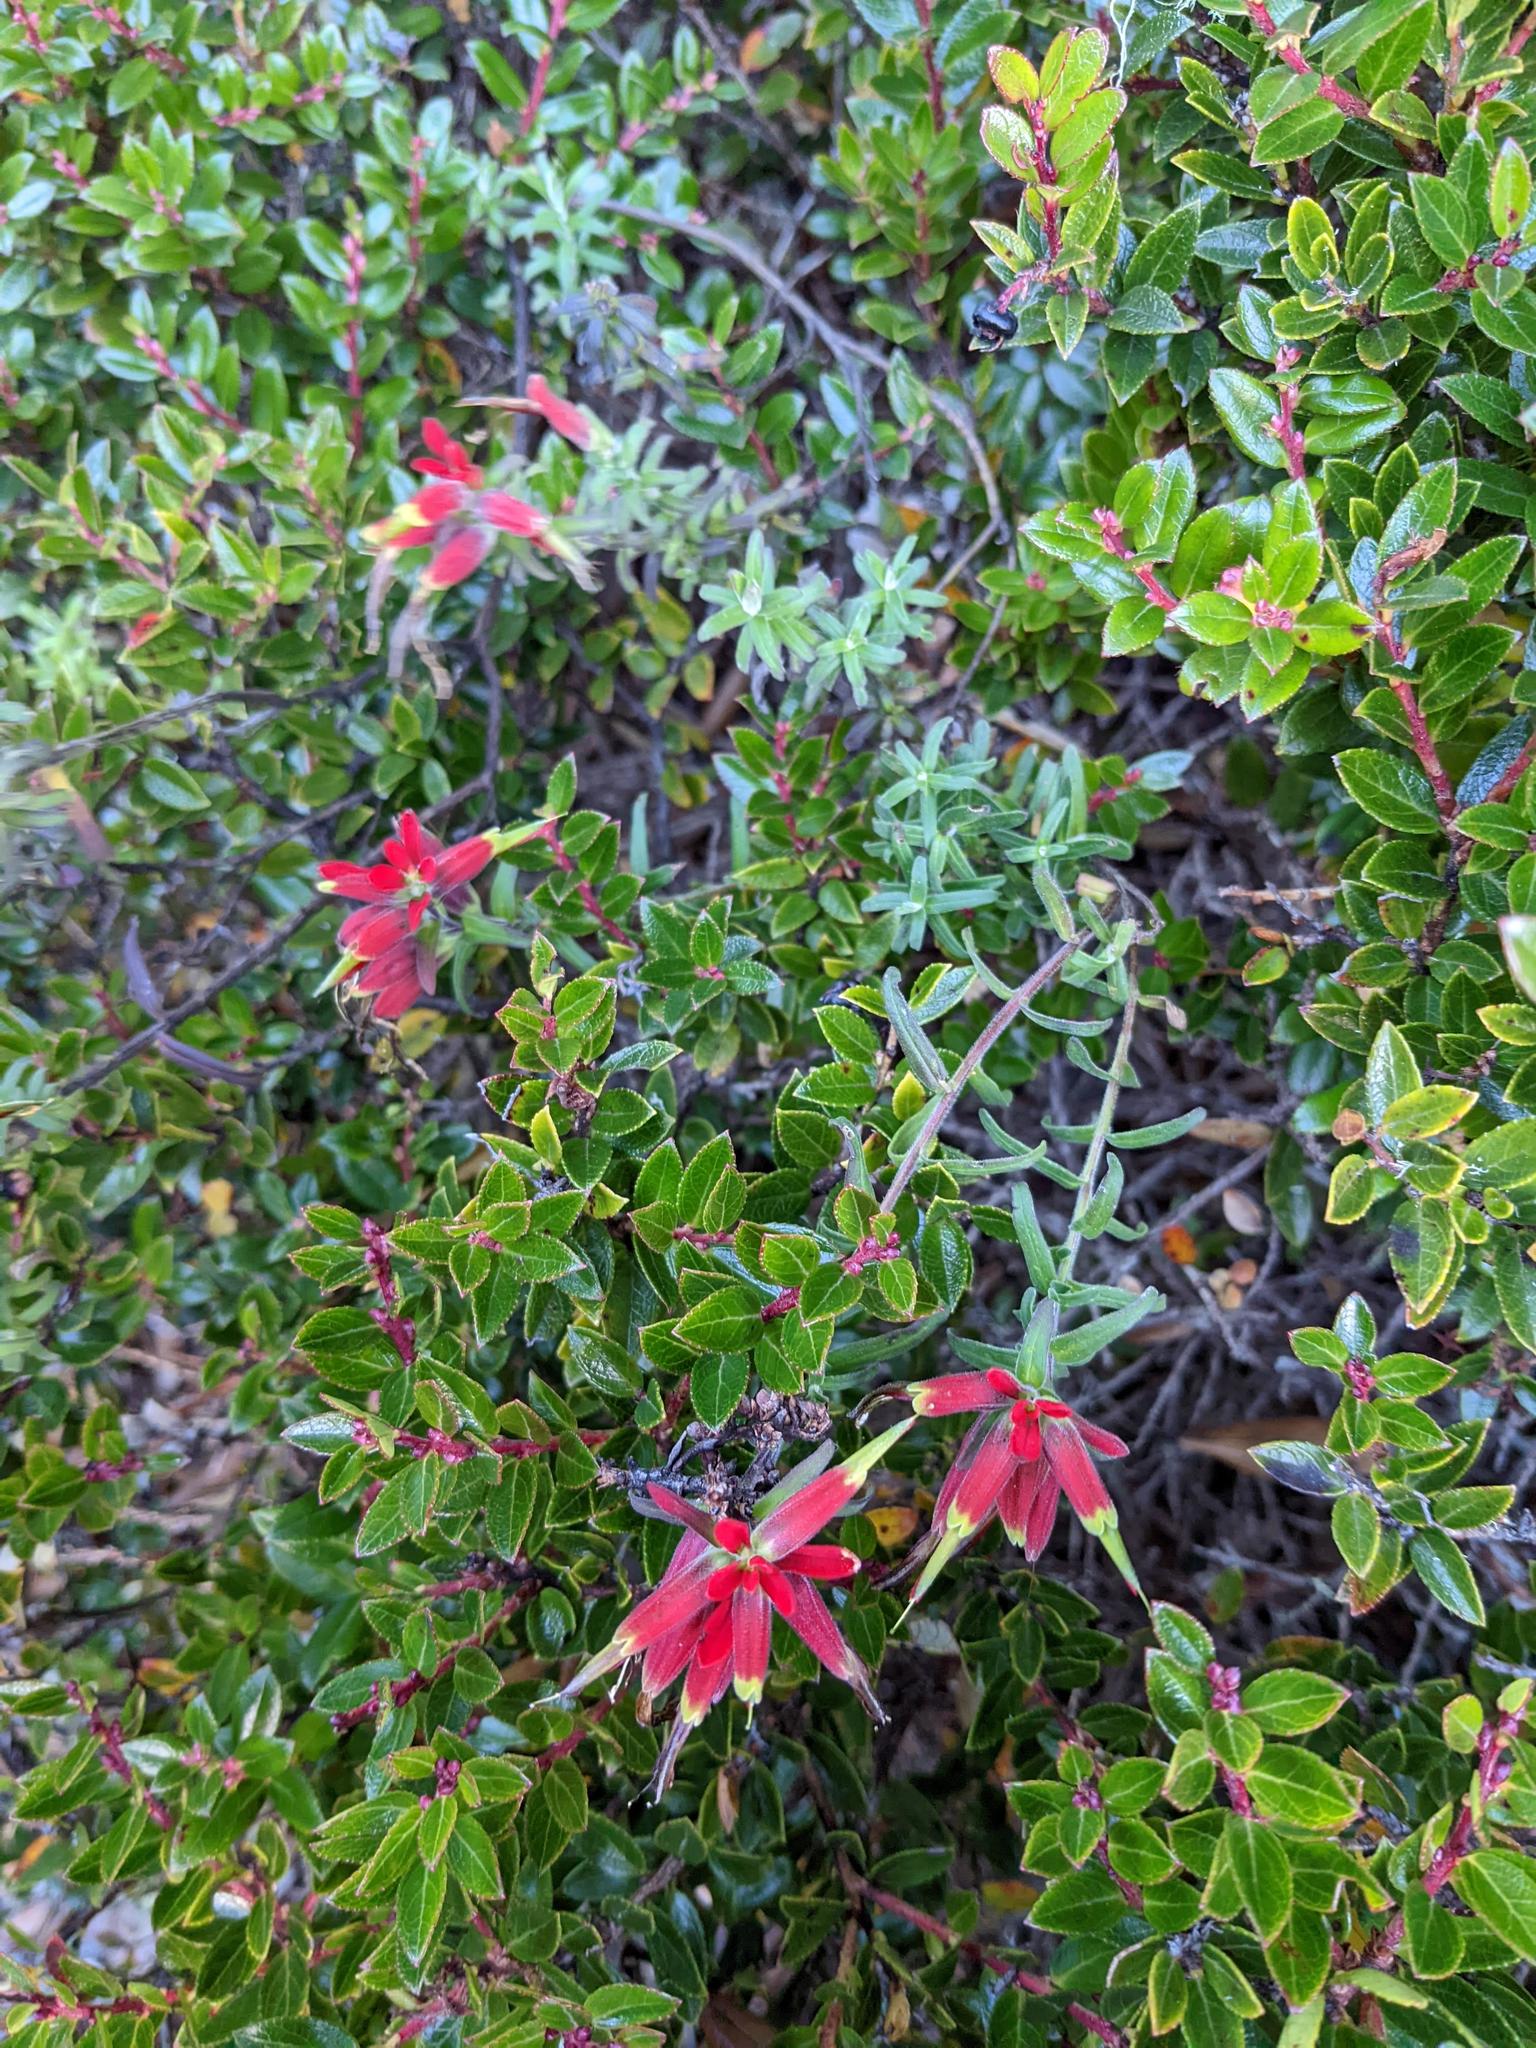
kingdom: Plantae
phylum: Tracheophyta
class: Magnoliopsida
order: Lamiales
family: Orobanchaceae
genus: Castilleja
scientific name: Castilleja quirosii
